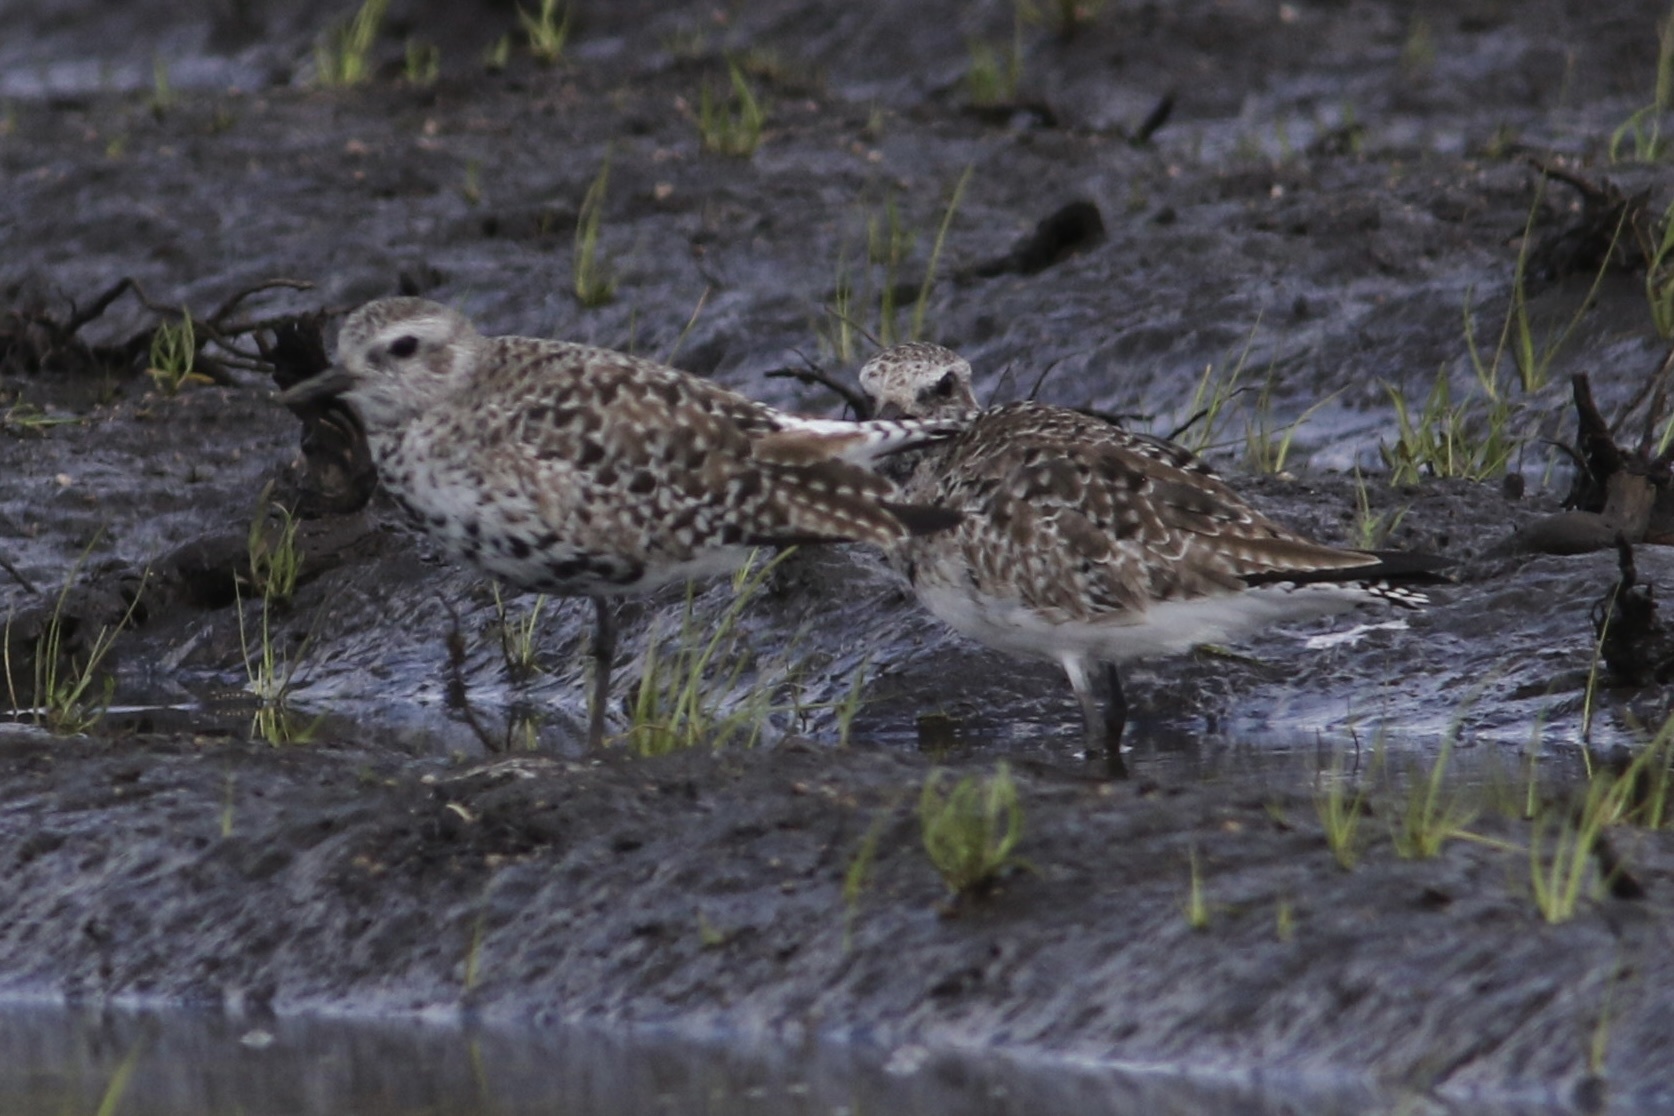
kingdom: Animalia
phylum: Chordata
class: Aves
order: Charadriiformes
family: Charadriidae
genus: Pluvialis
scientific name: Pluvialis squatarola
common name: Grey plover
